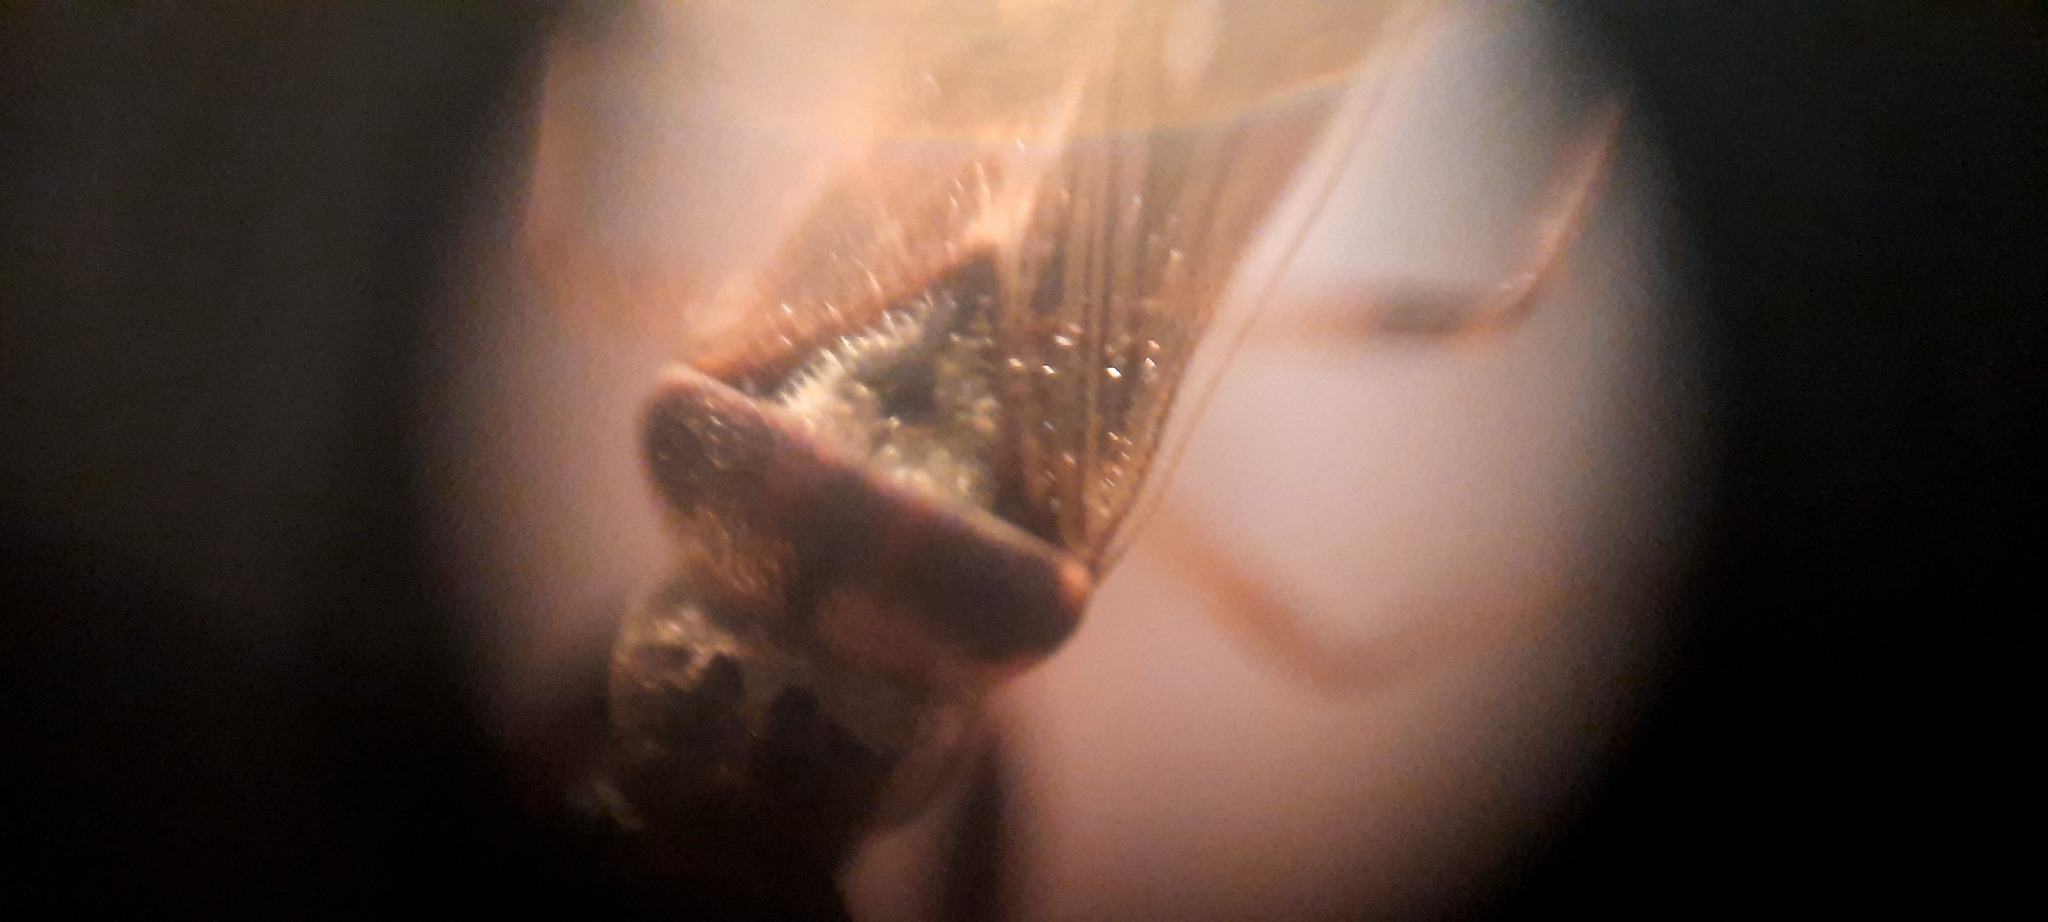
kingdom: Animalia
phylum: Arthropoda
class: Insecta
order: Hemiptera
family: Rhyparochromidae
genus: Pseudopachybrachius
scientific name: Pseudopachybrachius vinctus
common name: Dirt-colored seed bug
